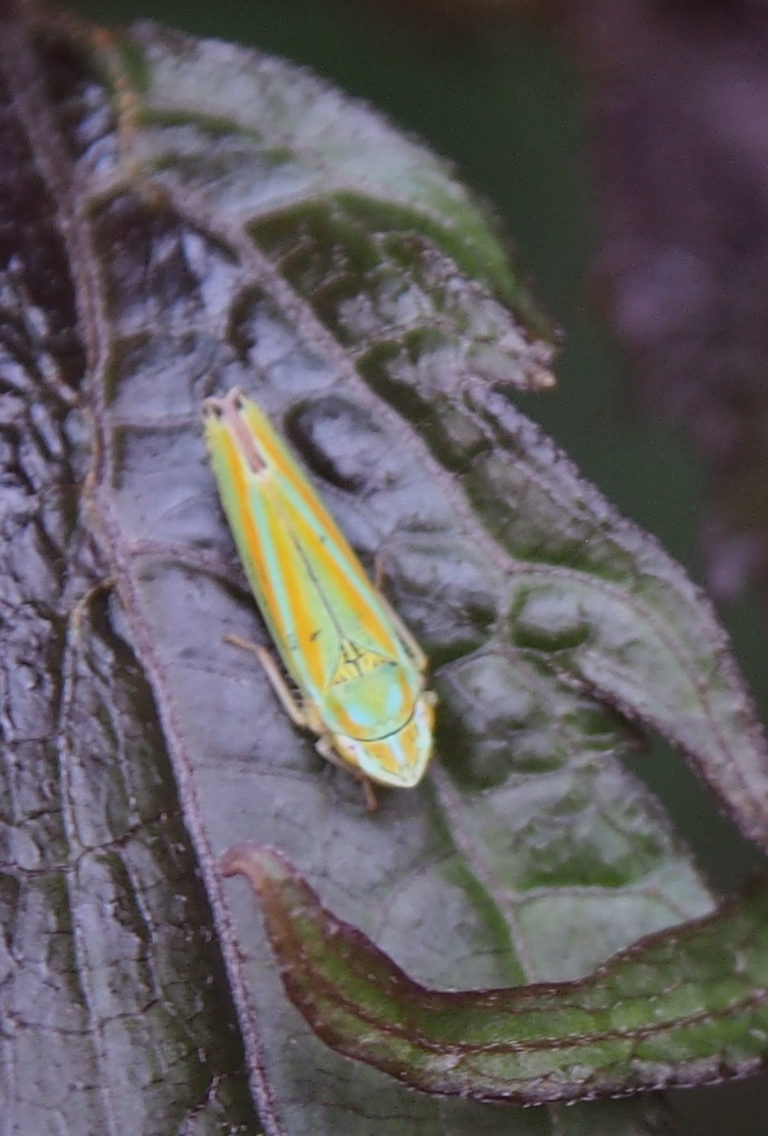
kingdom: Animalia
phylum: Arthropoda
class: Insecta
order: Hemiptera
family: Cicadellidae
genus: Graphocephala
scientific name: Graphocephala versuta
